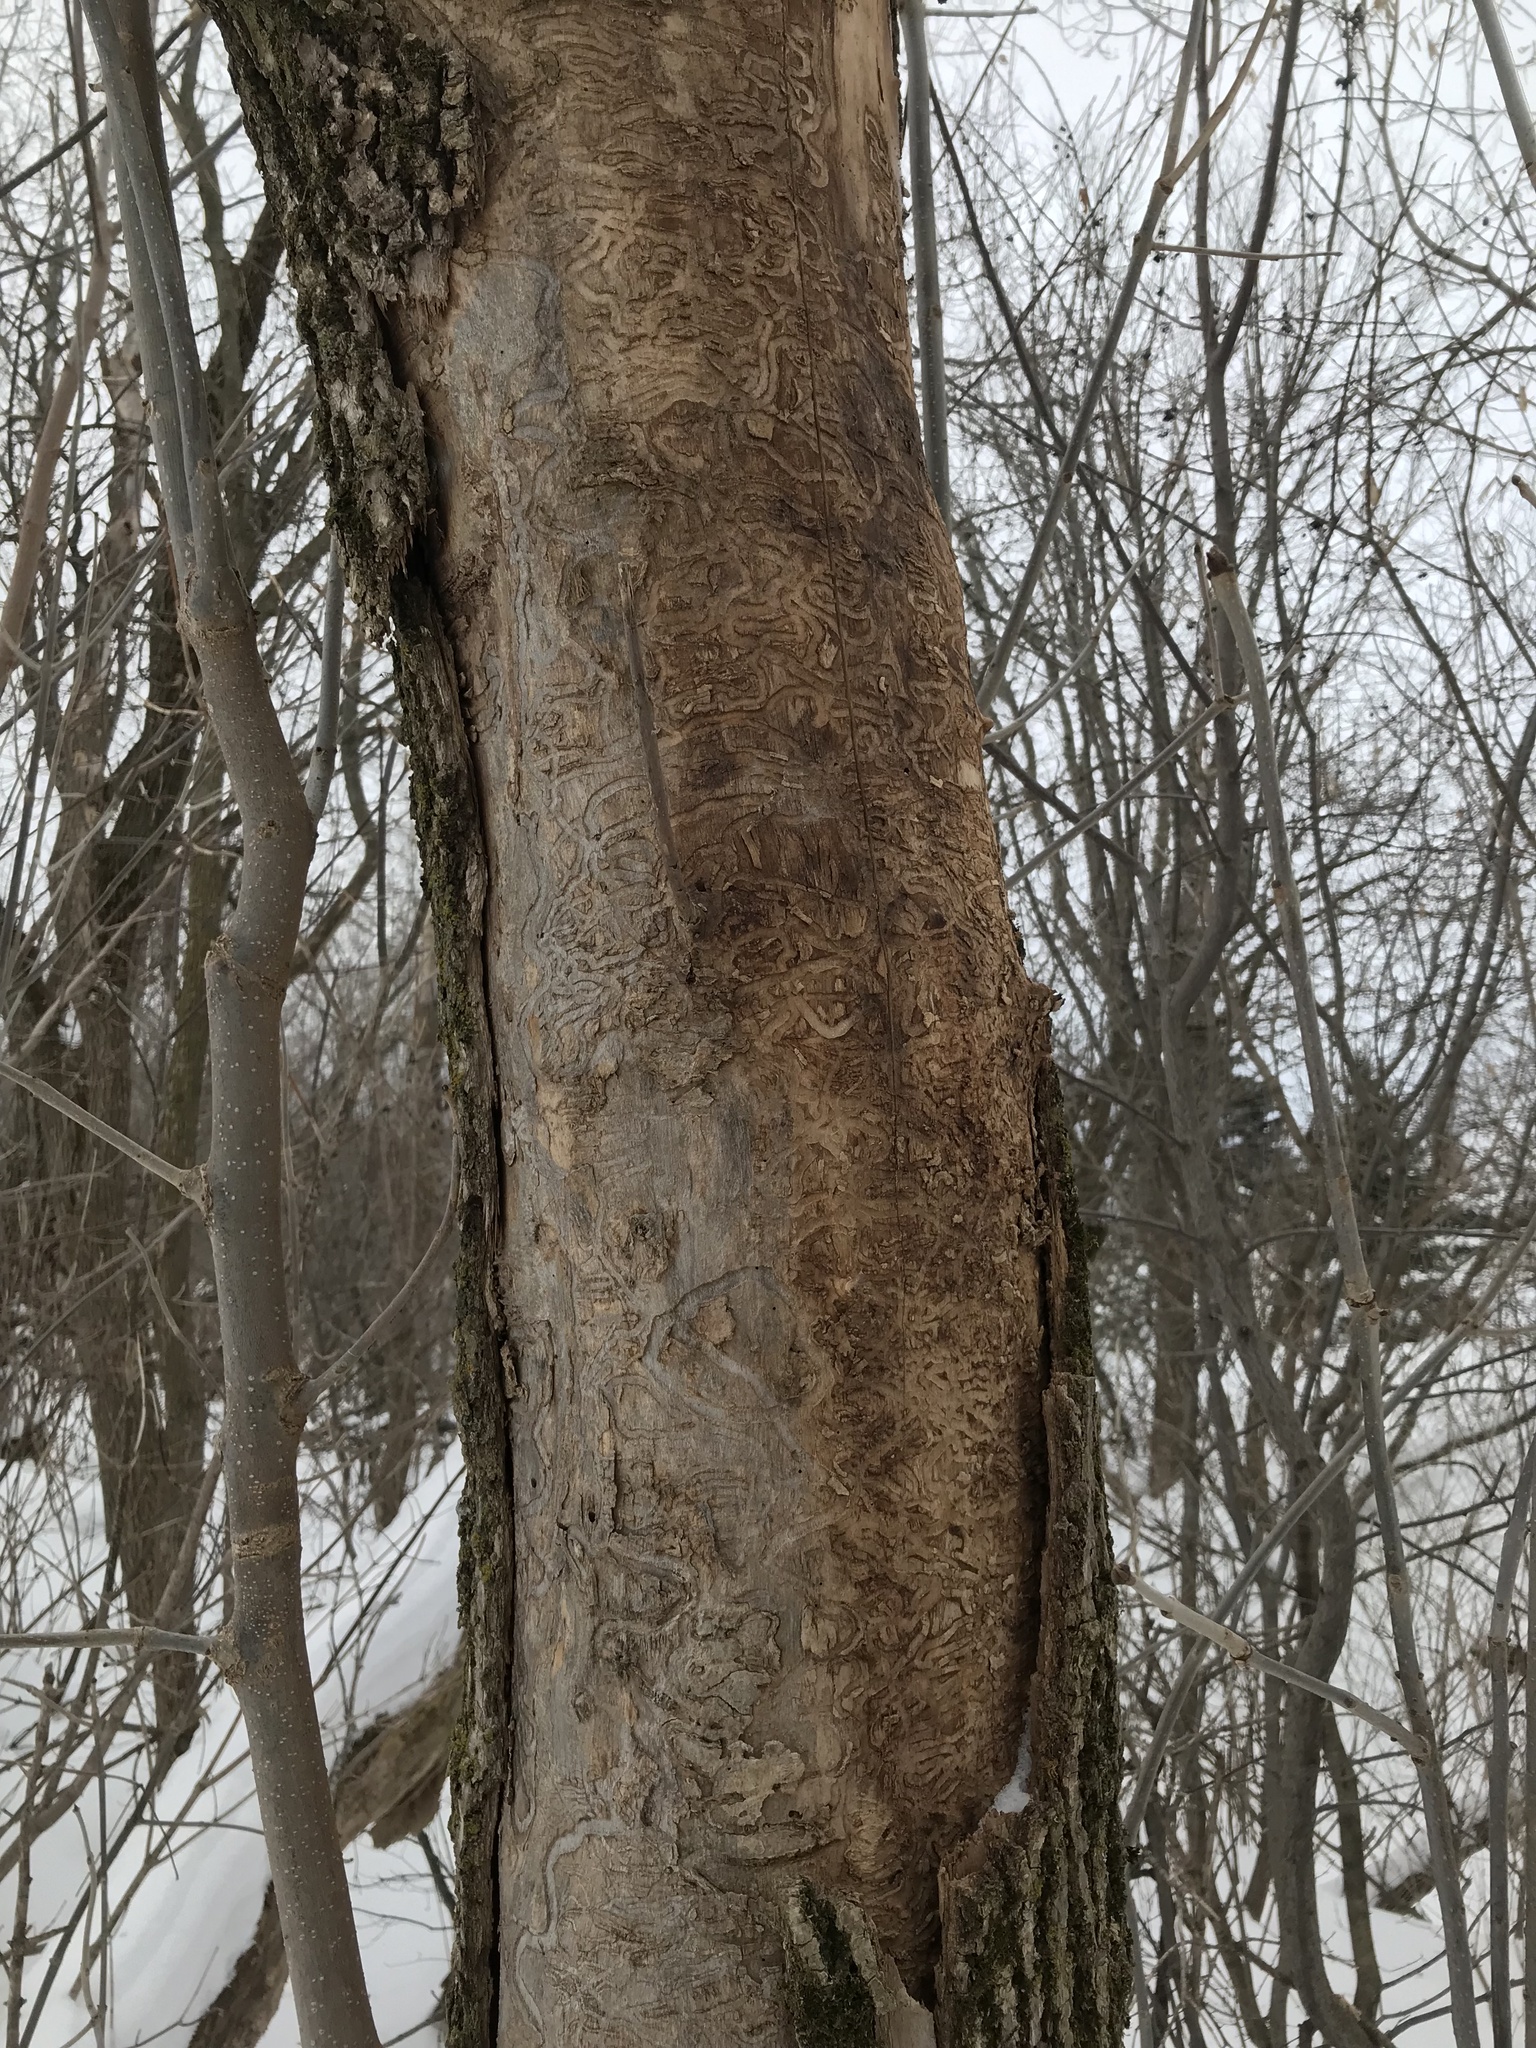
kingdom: Animalia
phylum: Arthropoda
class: Insecta
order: Coleoptera
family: Buprestidae
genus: Agrilus
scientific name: Agrilus planipennis
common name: Emerald ash borer
